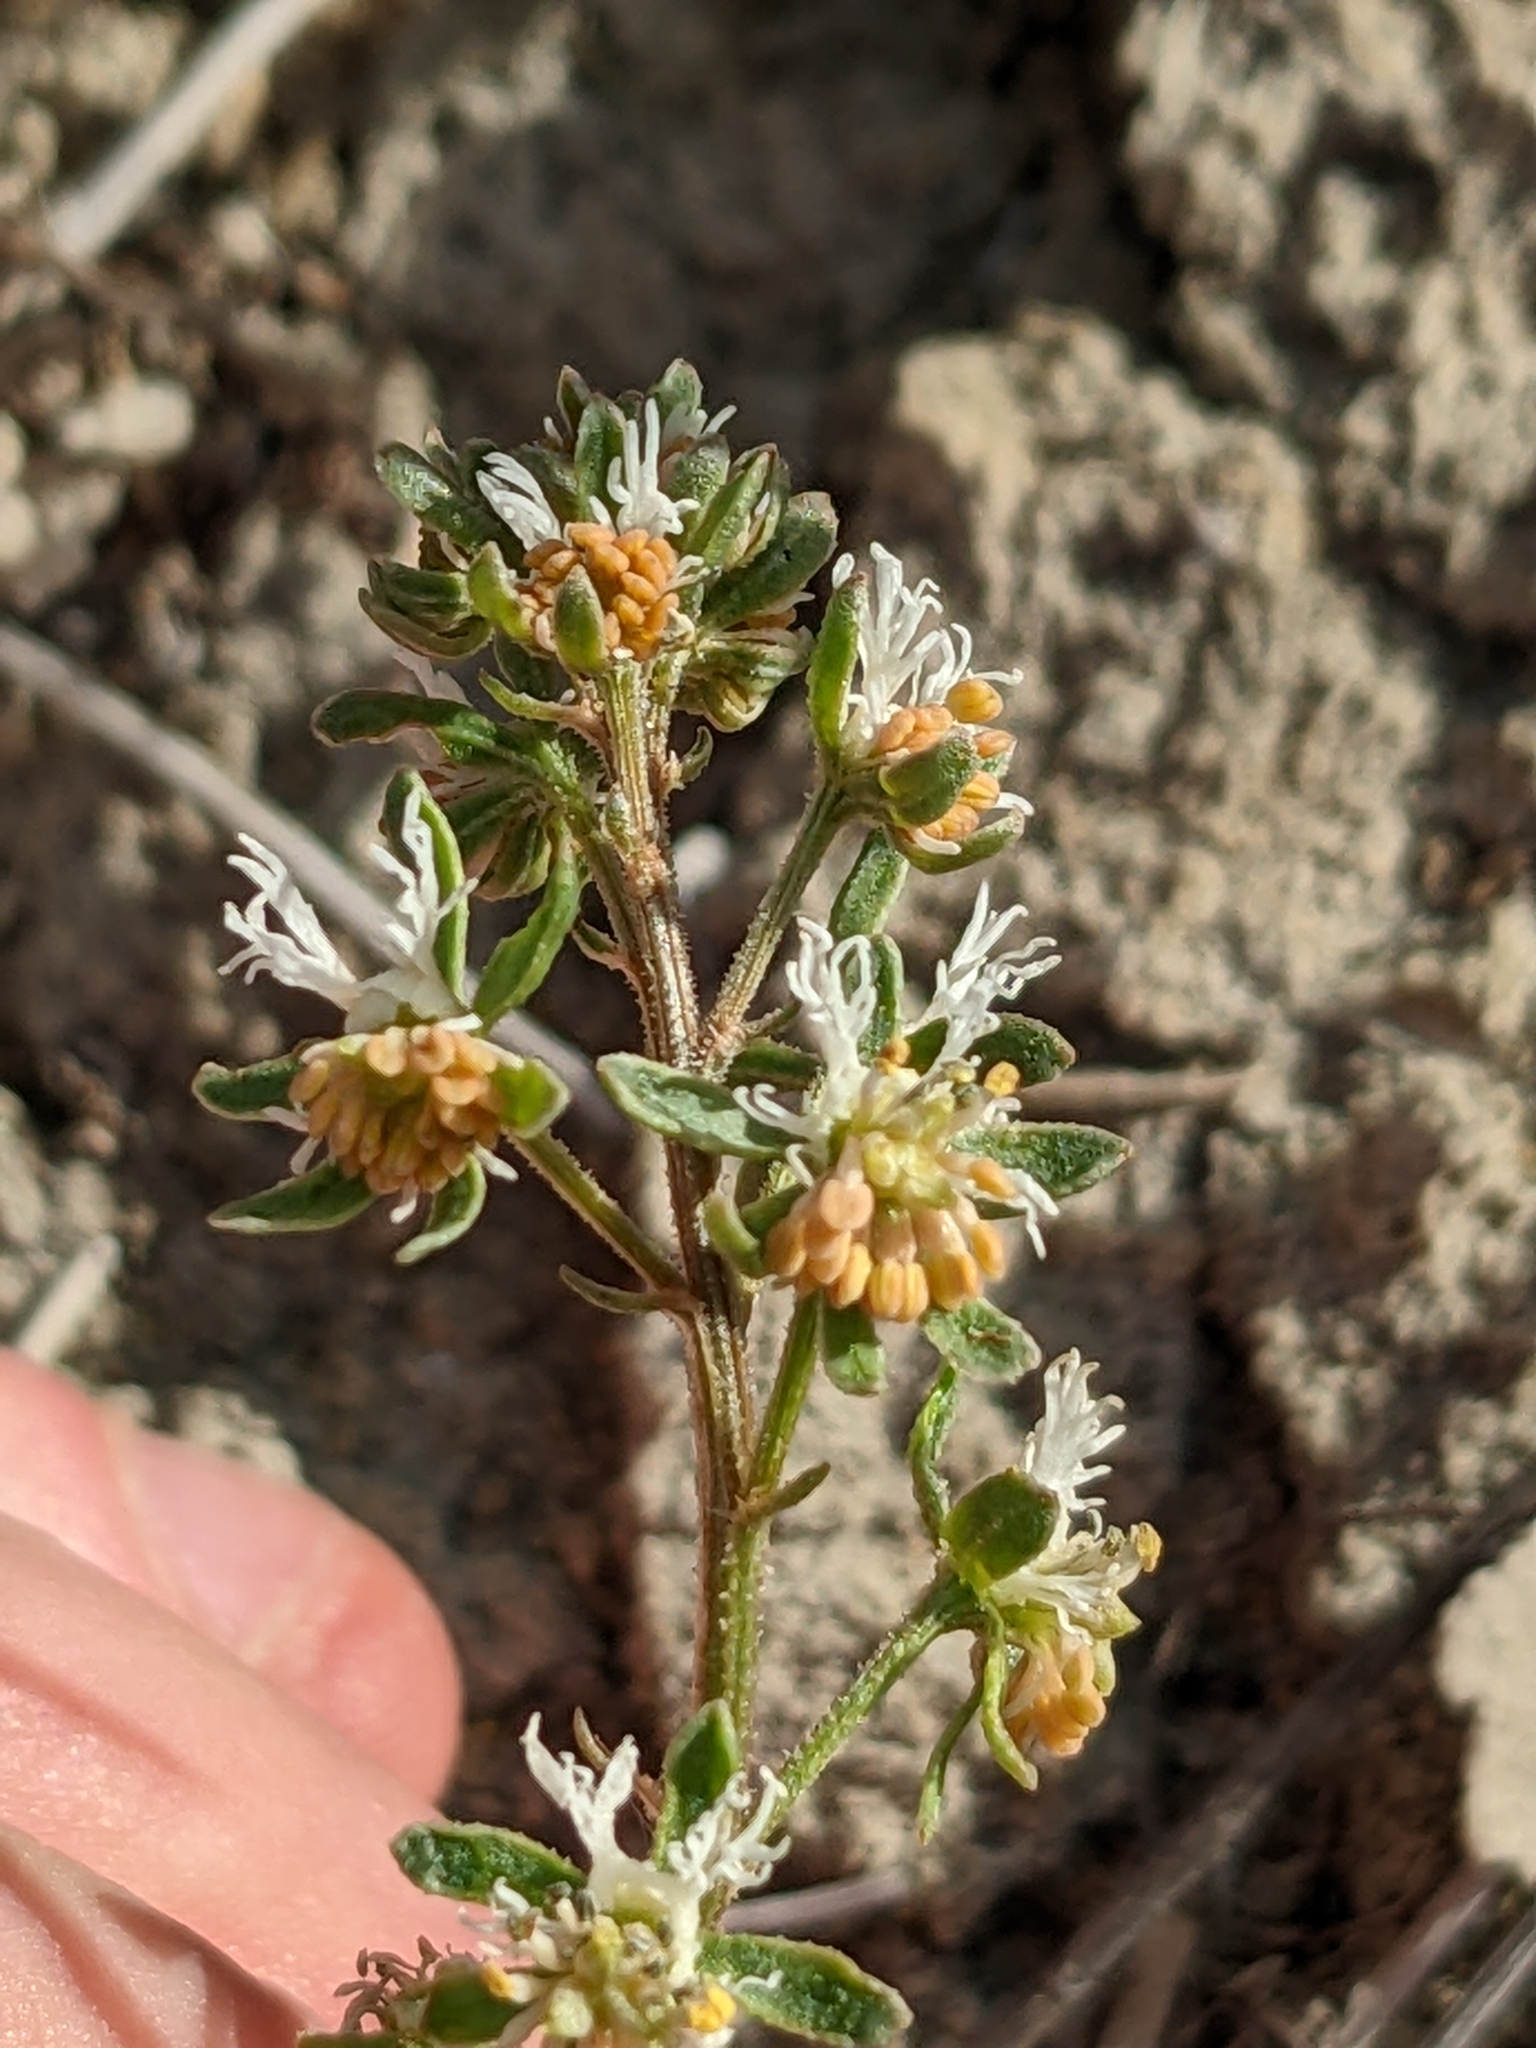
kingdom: Plantae
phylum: Tracheophyta
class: Magnoliopsida
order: Brassicales
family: Resedaceae
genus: Reseda
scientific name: Reseda phyteuma
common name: Corn mignonette
